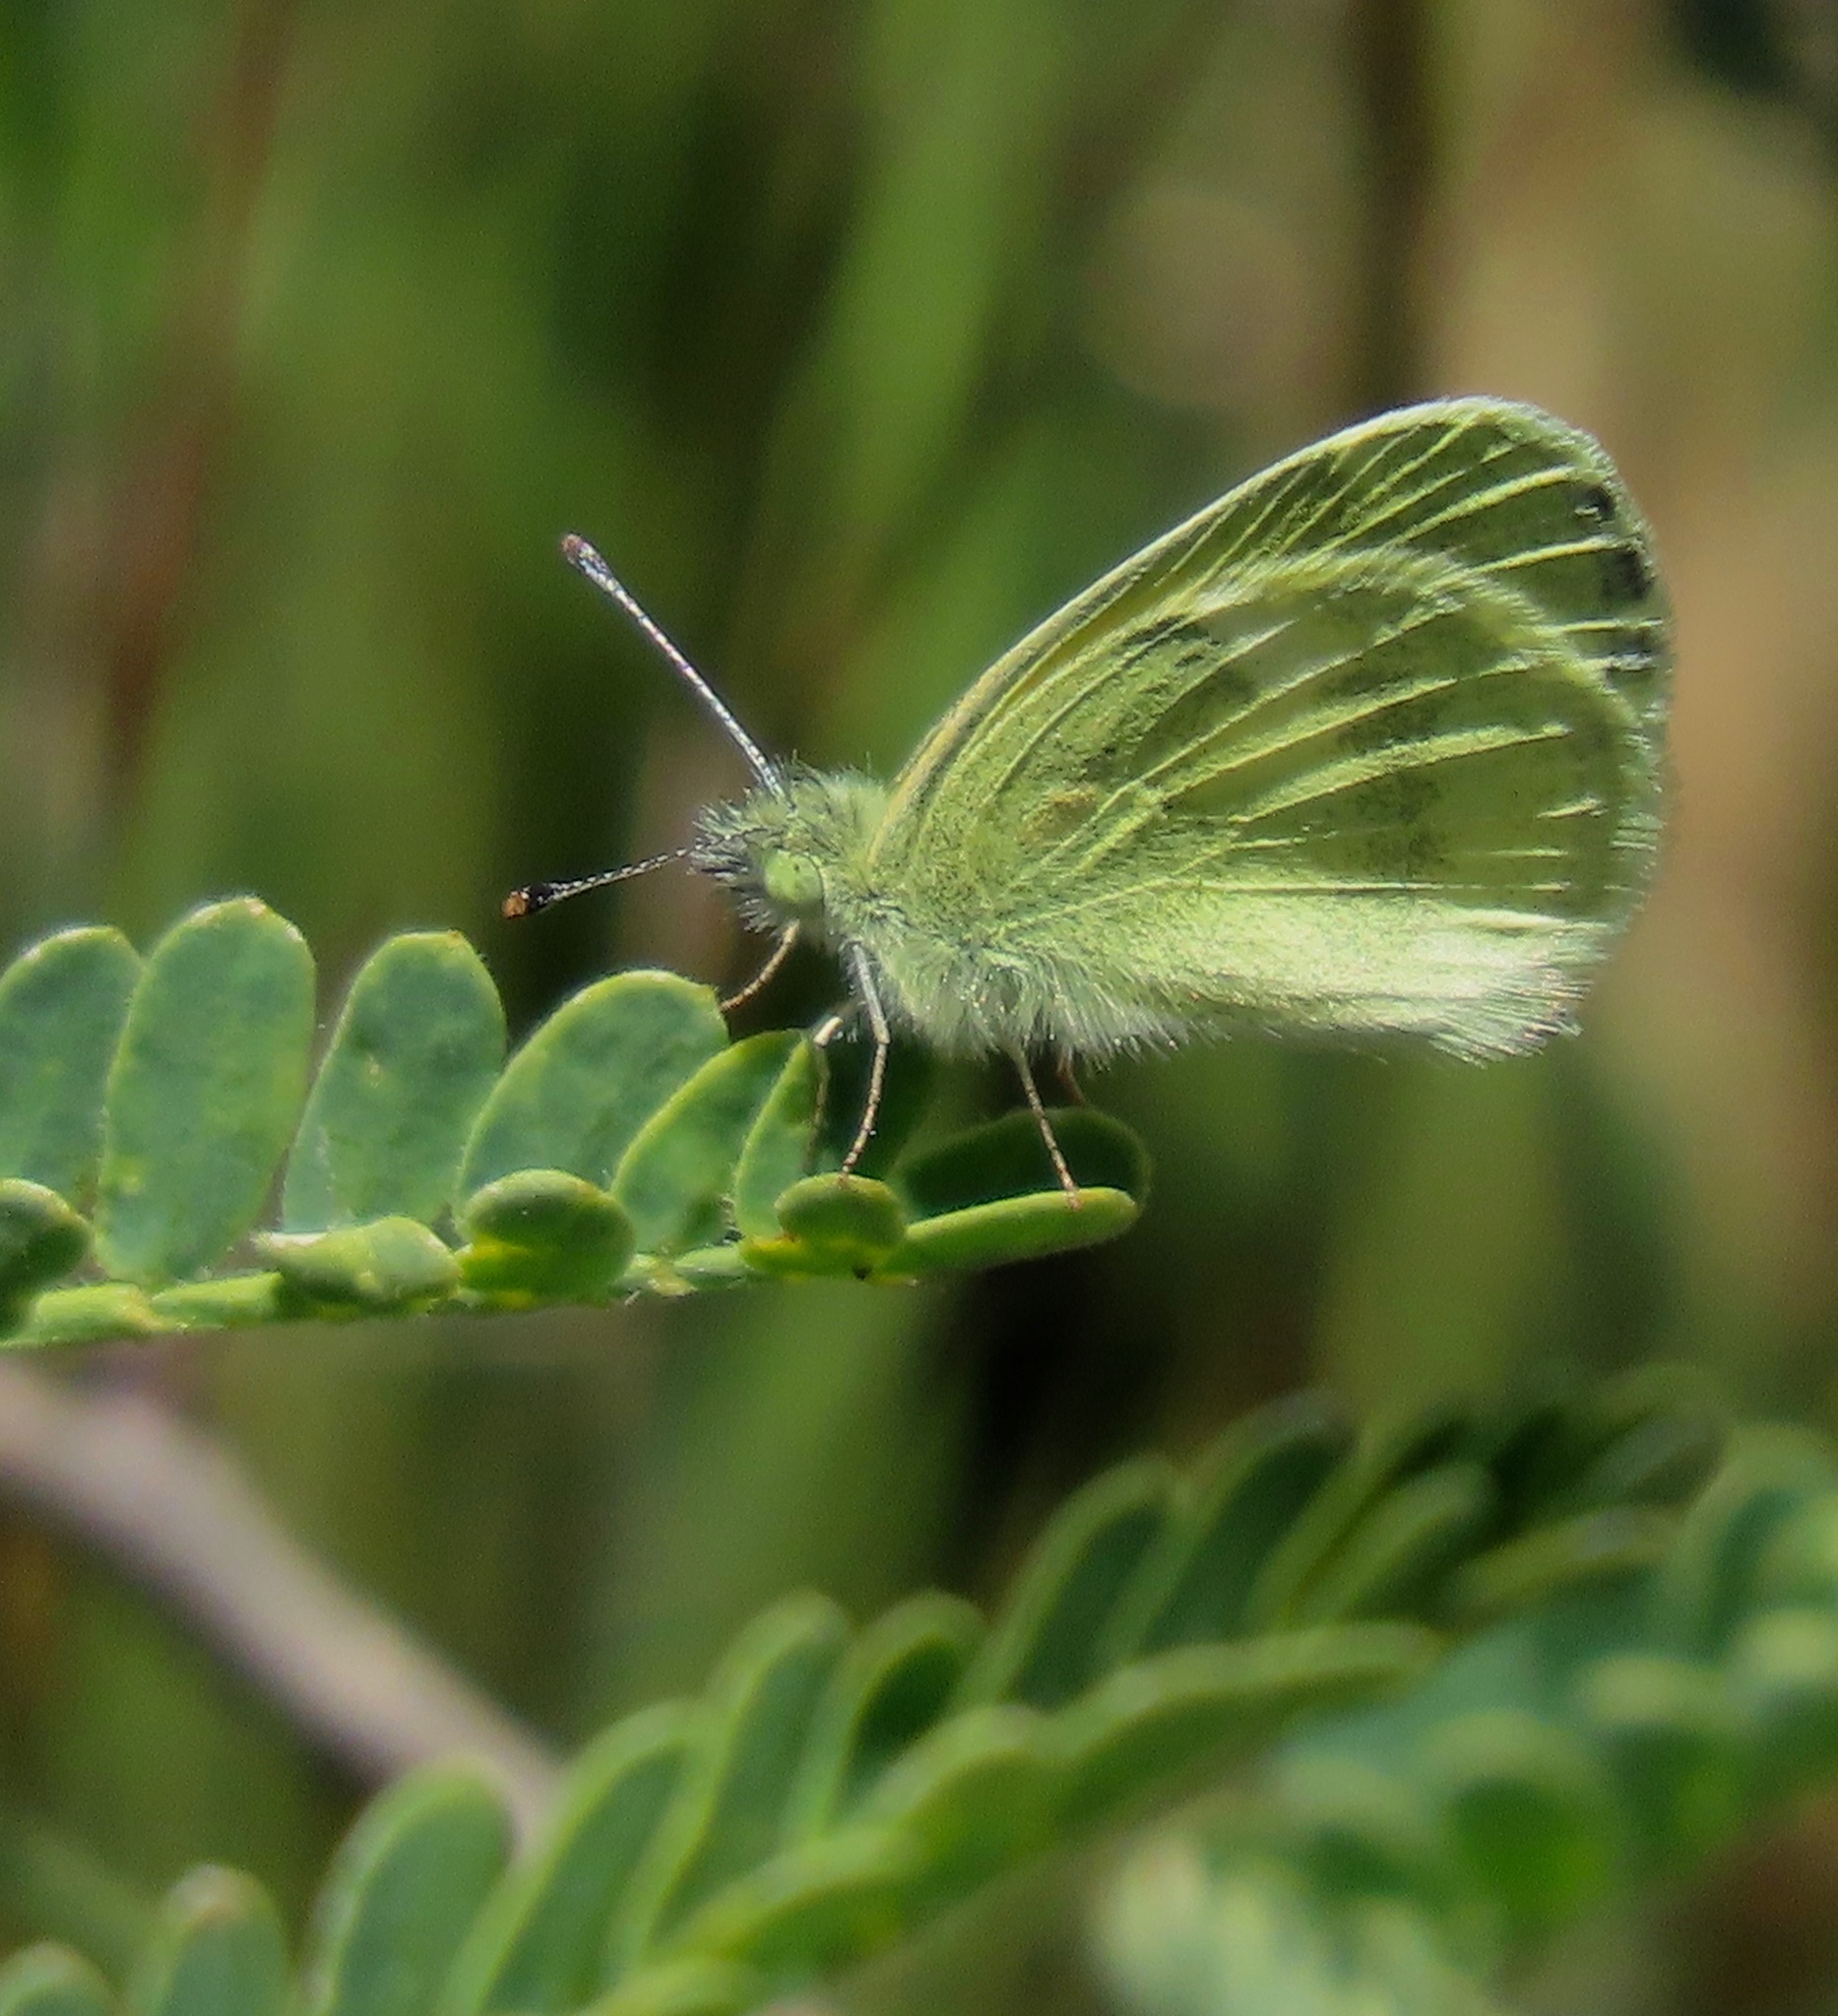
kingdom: Animalia
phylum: Arthropoda
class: Insecta
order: Lepidoptera
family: Pieridae
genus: Nathalis
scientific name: Nathalis iole
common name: Dainty sulphur
